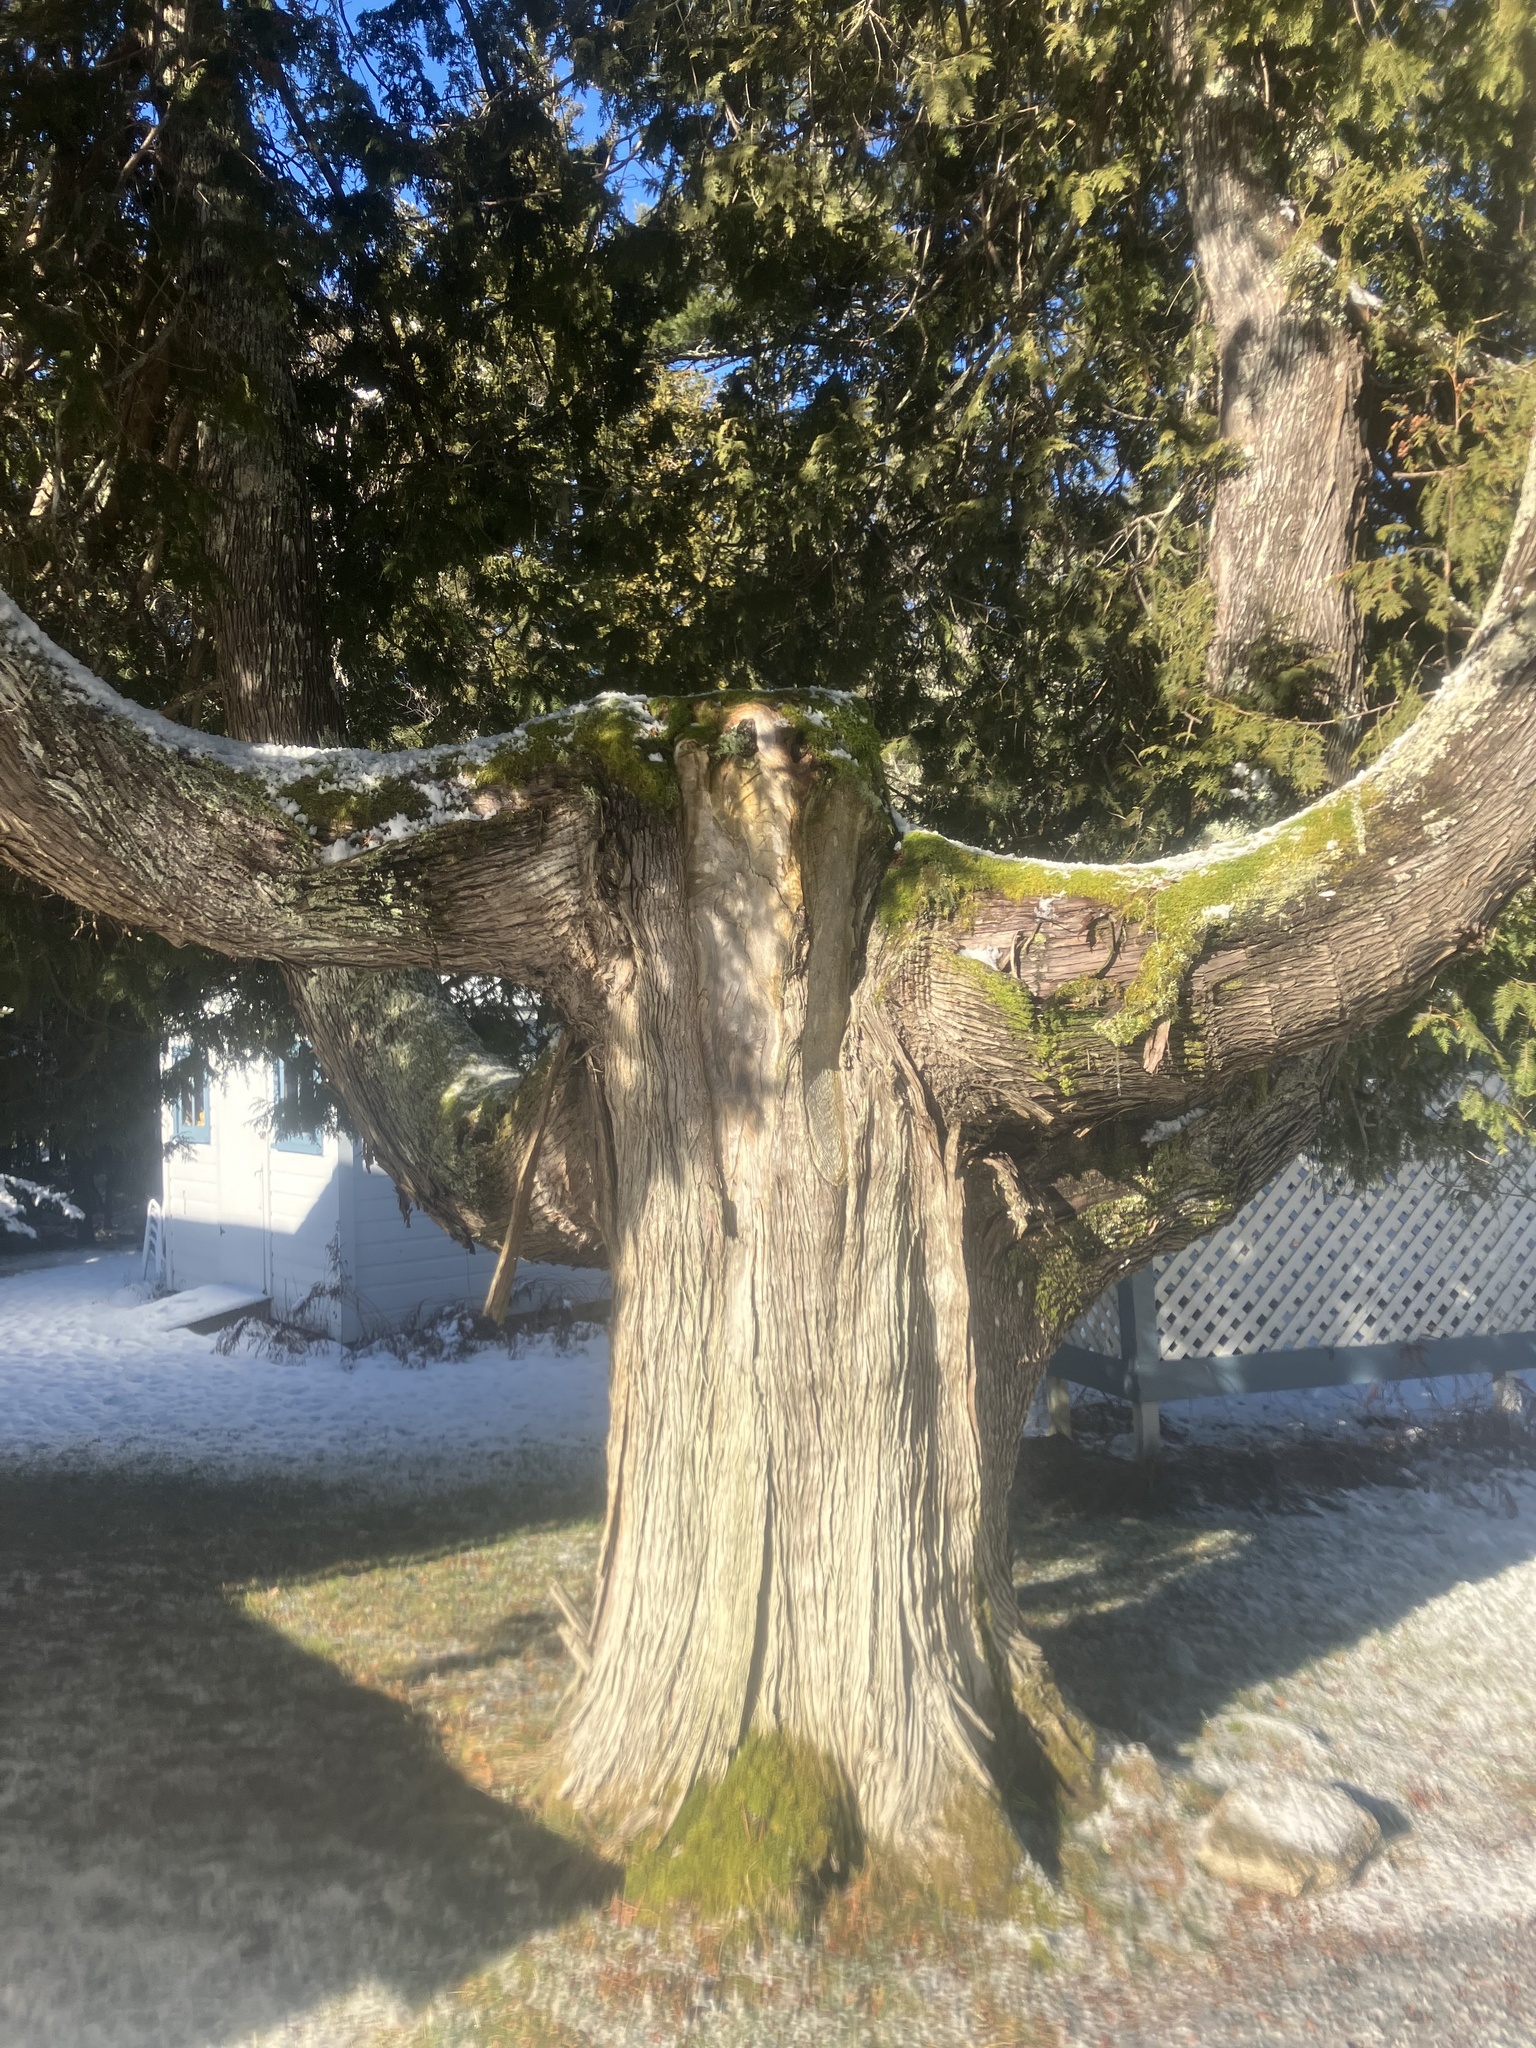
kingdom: Plantae
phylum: Tracheophyta
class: Pinopsida
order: Pinales
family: Cupressaceae
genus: Thuja
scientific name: Thuja occidentalis
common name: Northern white-cedar
